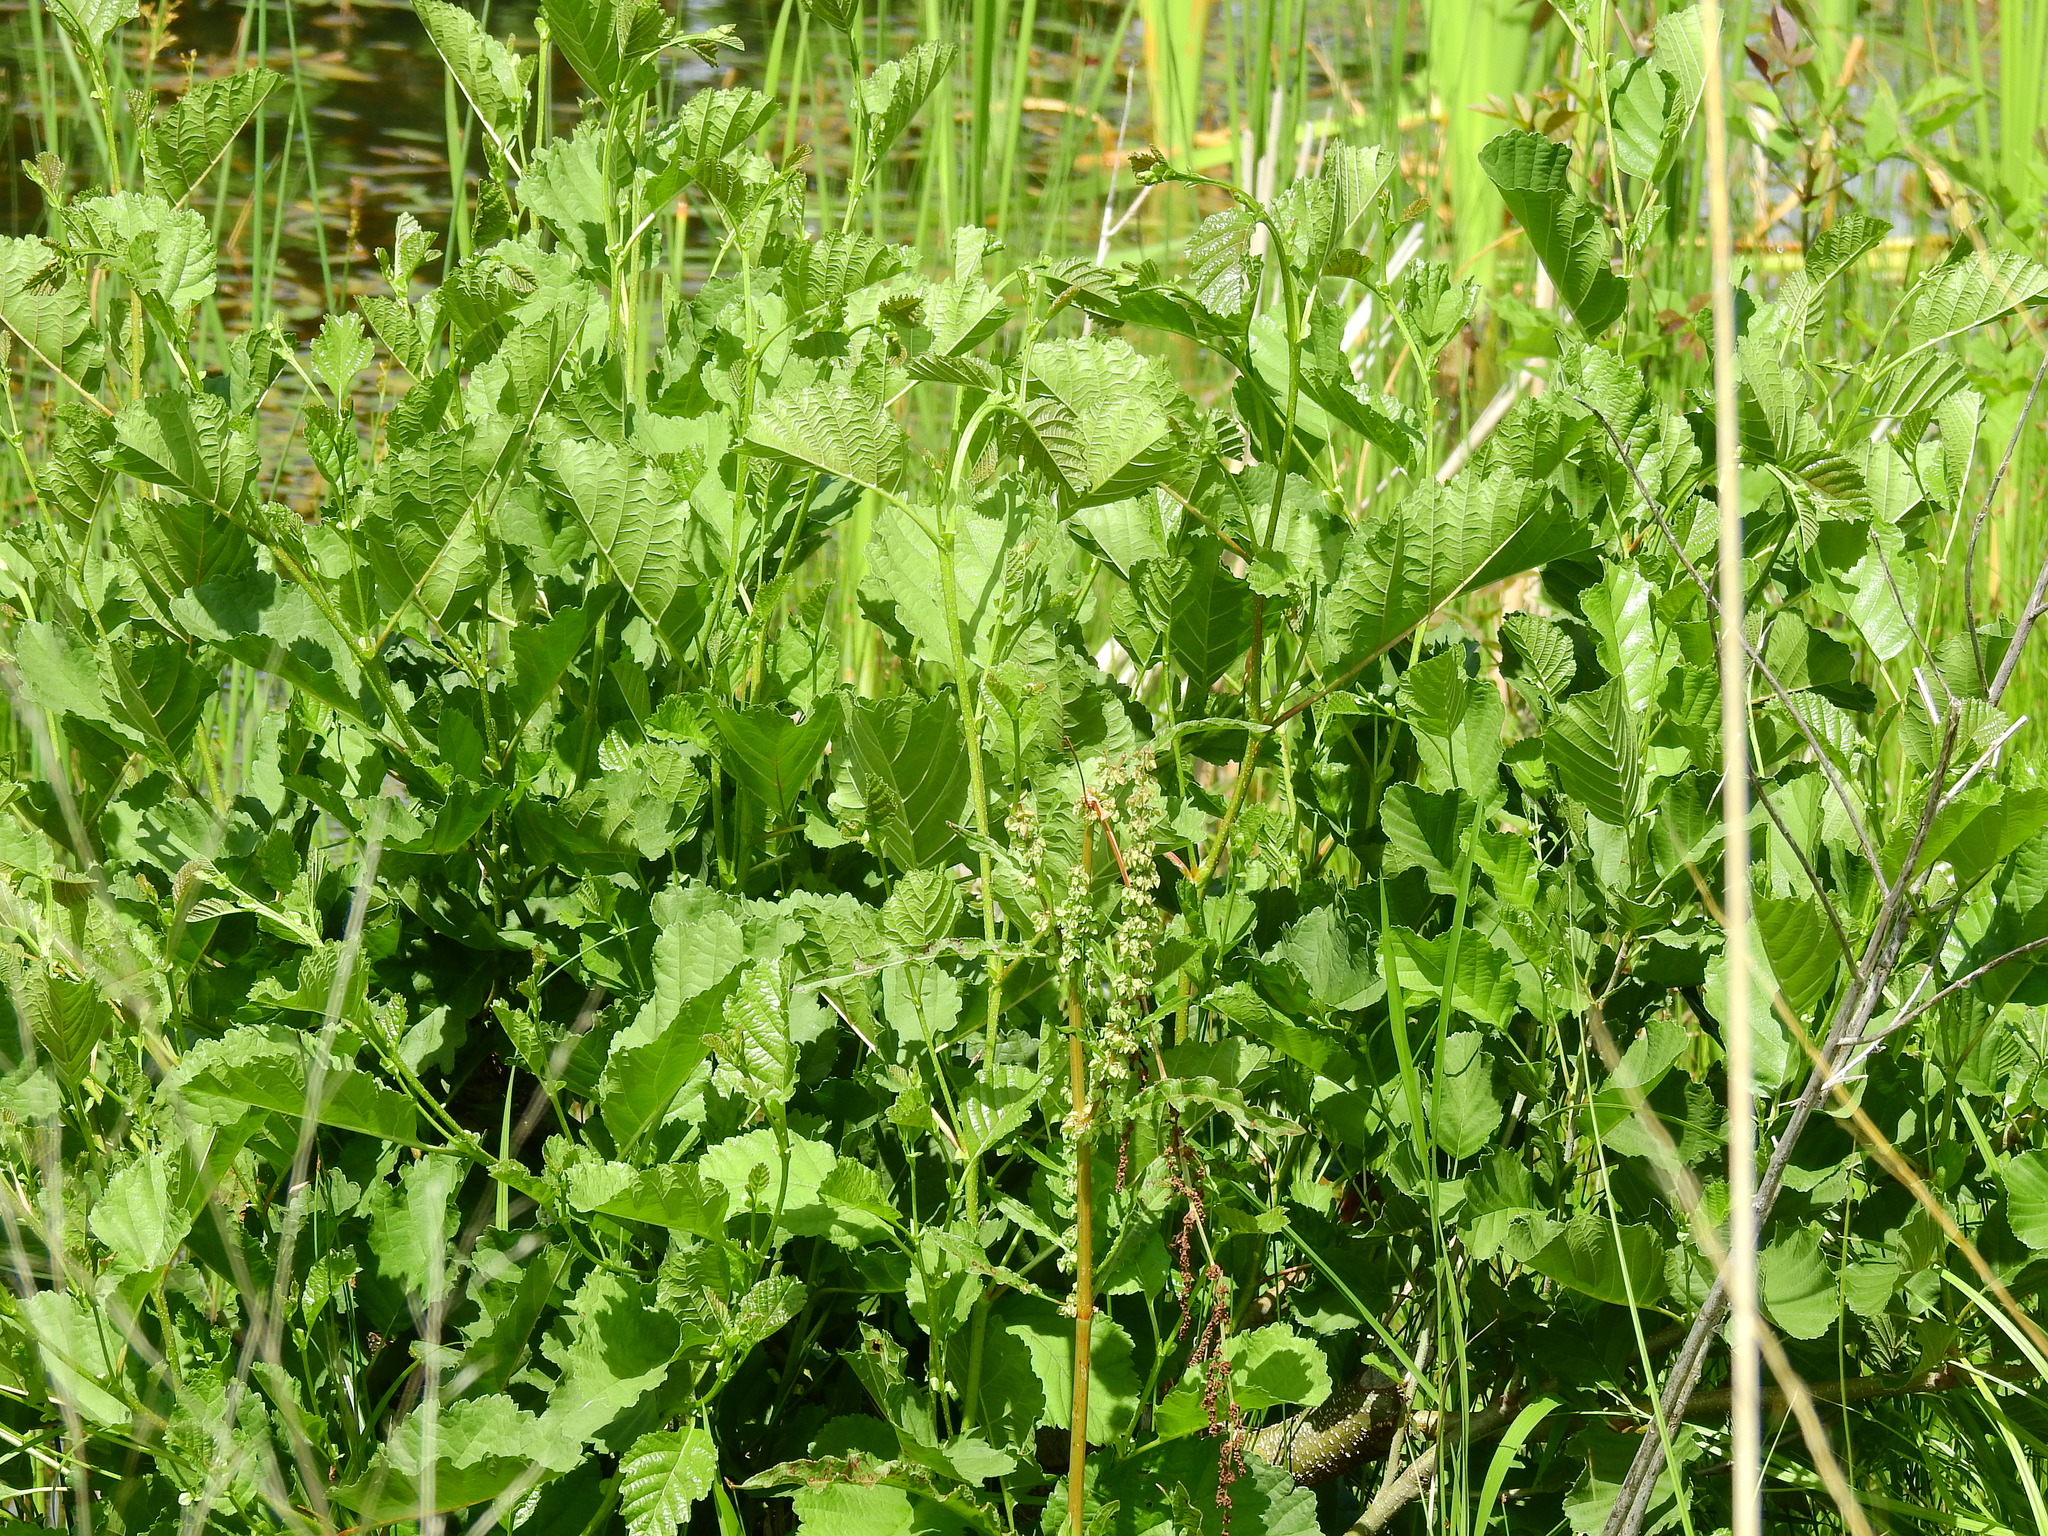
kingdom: Plantae
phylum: Tracheophyta
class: Magnoliopsida
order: Caryophyllales
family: Polygonaceae
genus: Rumex
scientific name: Rumex crispus
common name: Curled dock
